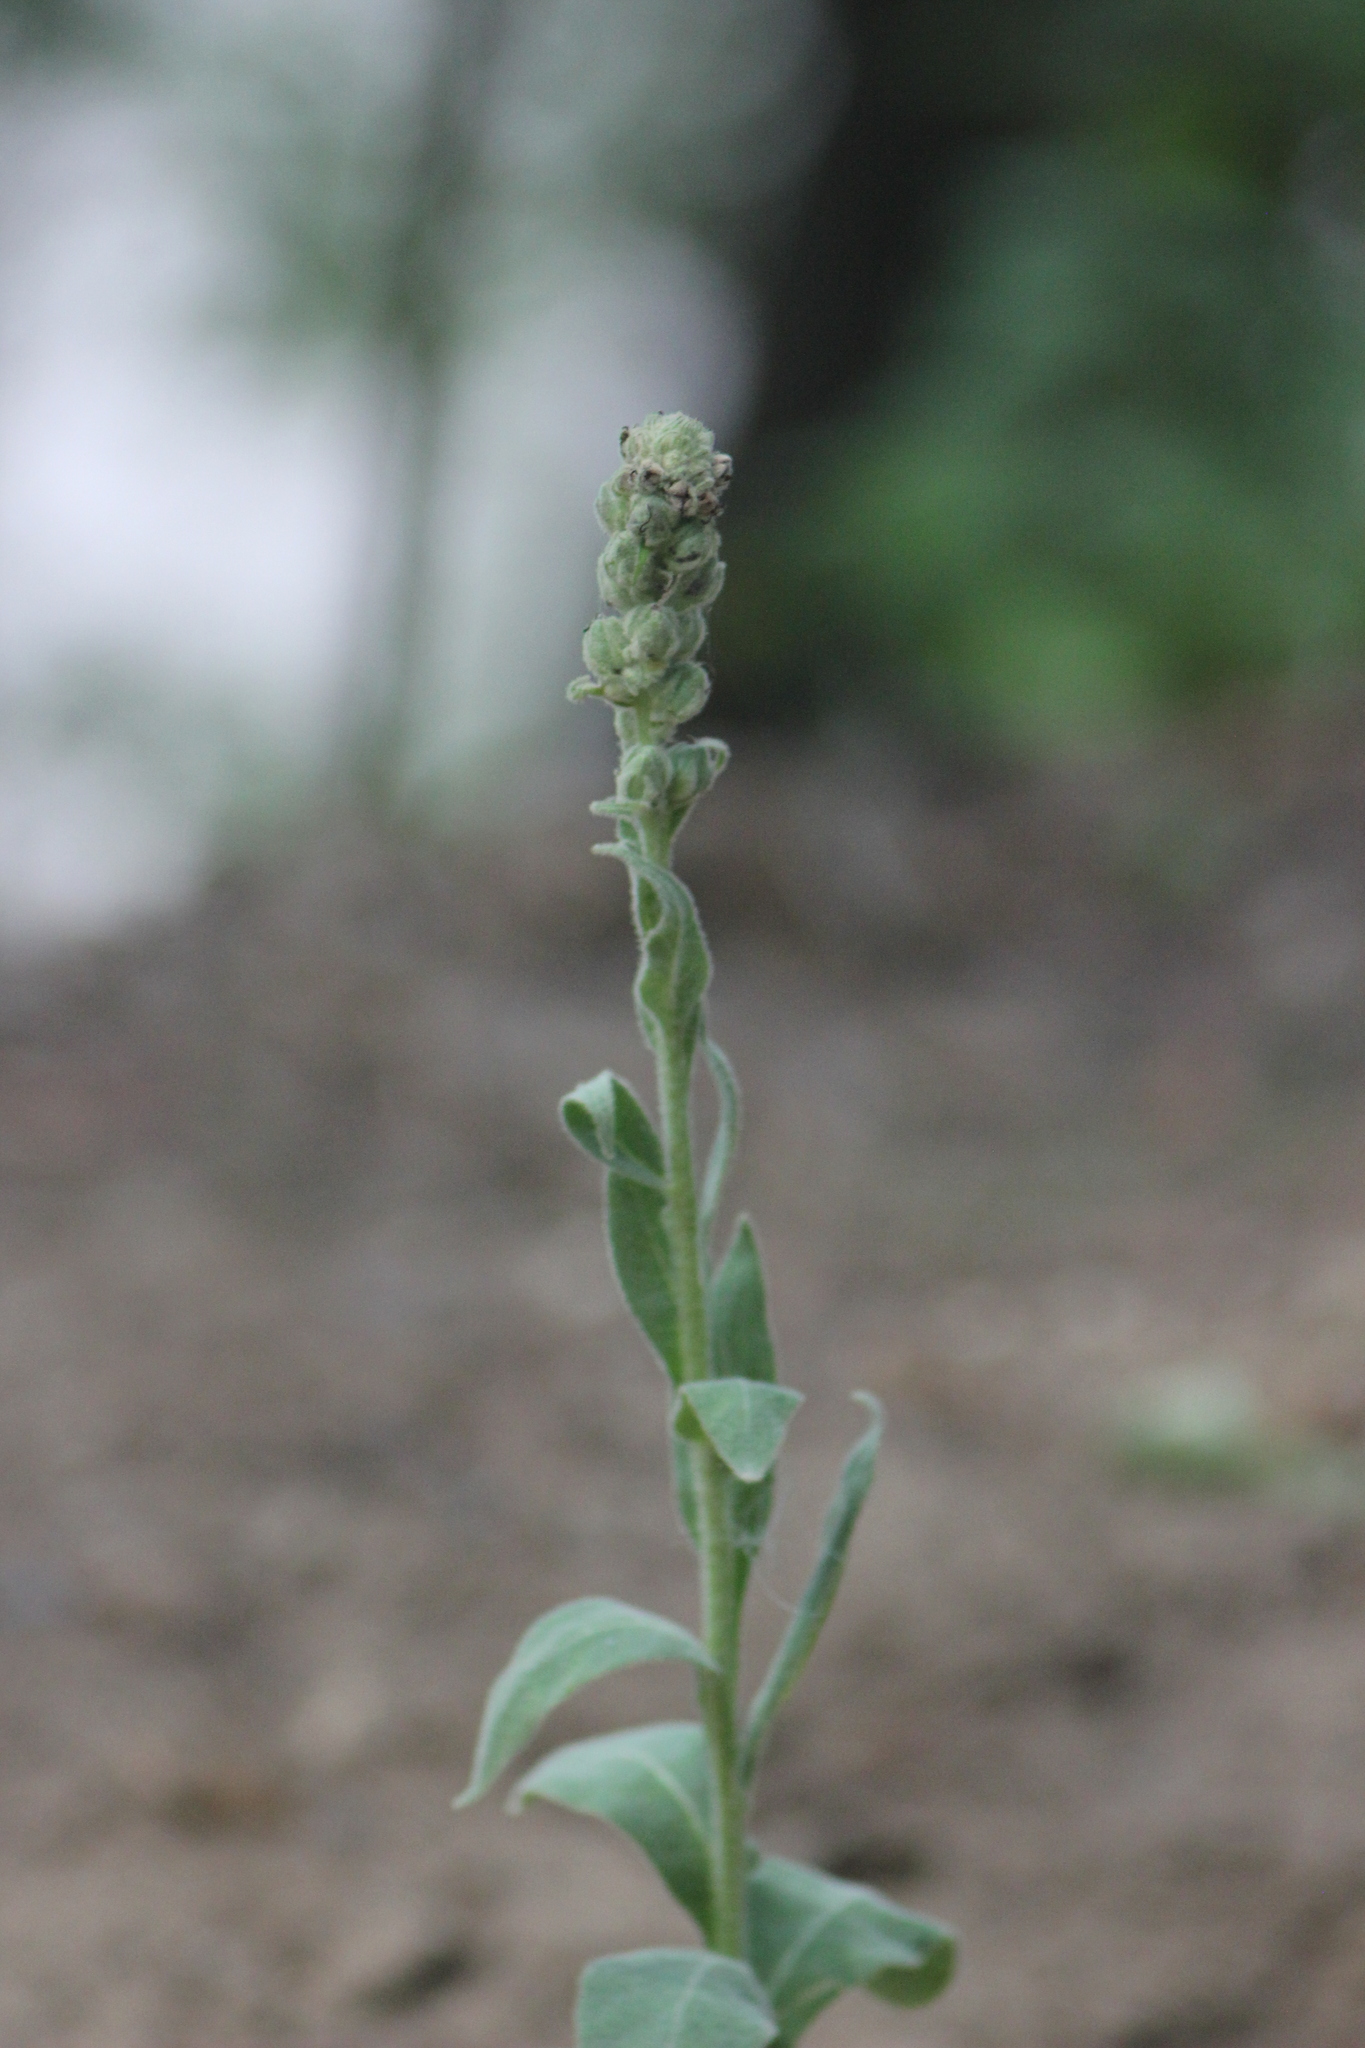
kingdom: Plantae
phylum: Tracheophyta
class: Magnoliopsida
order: Lamiales
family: Scrophulariaceae
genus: Verbascum
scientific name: Verbascum thapsus
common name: Common mullein
